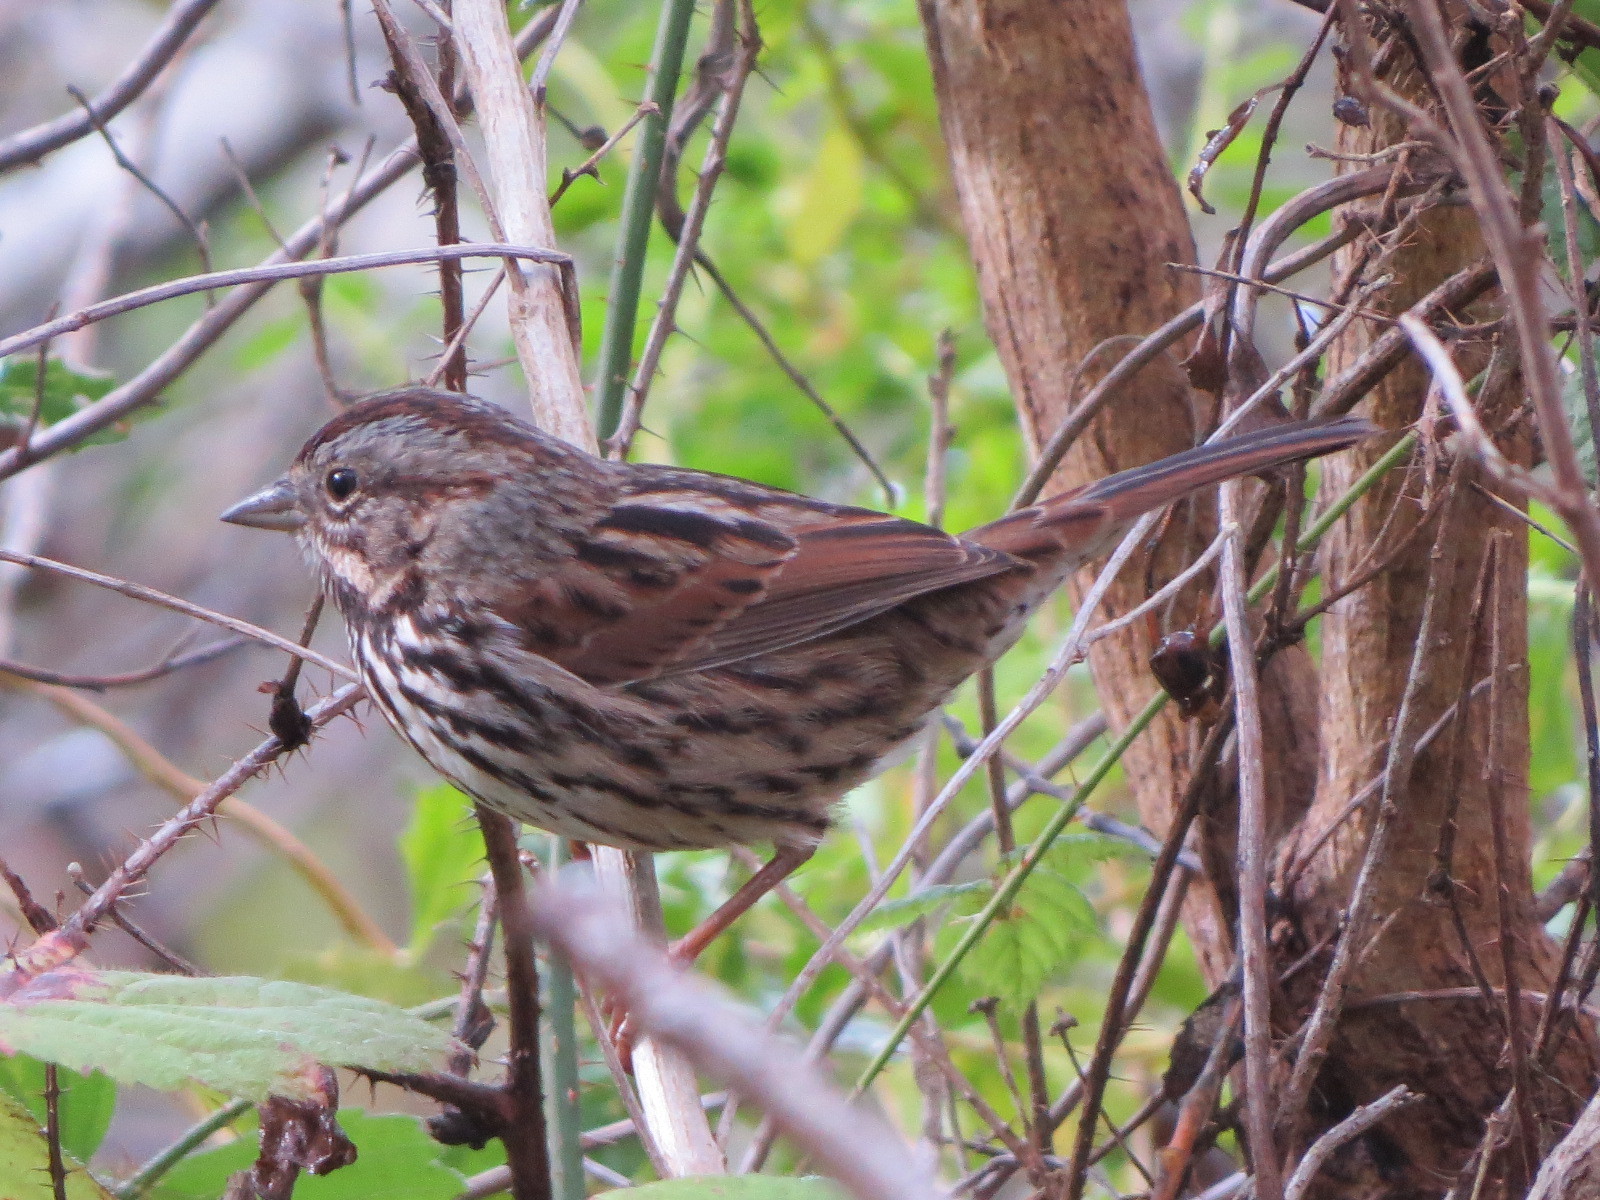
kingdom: Animalia
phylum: Chordata
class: Aves
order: Passeriformes
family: Passerellidae
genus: Melospiza
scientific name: Melospiza melodia
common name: Song sparrow
